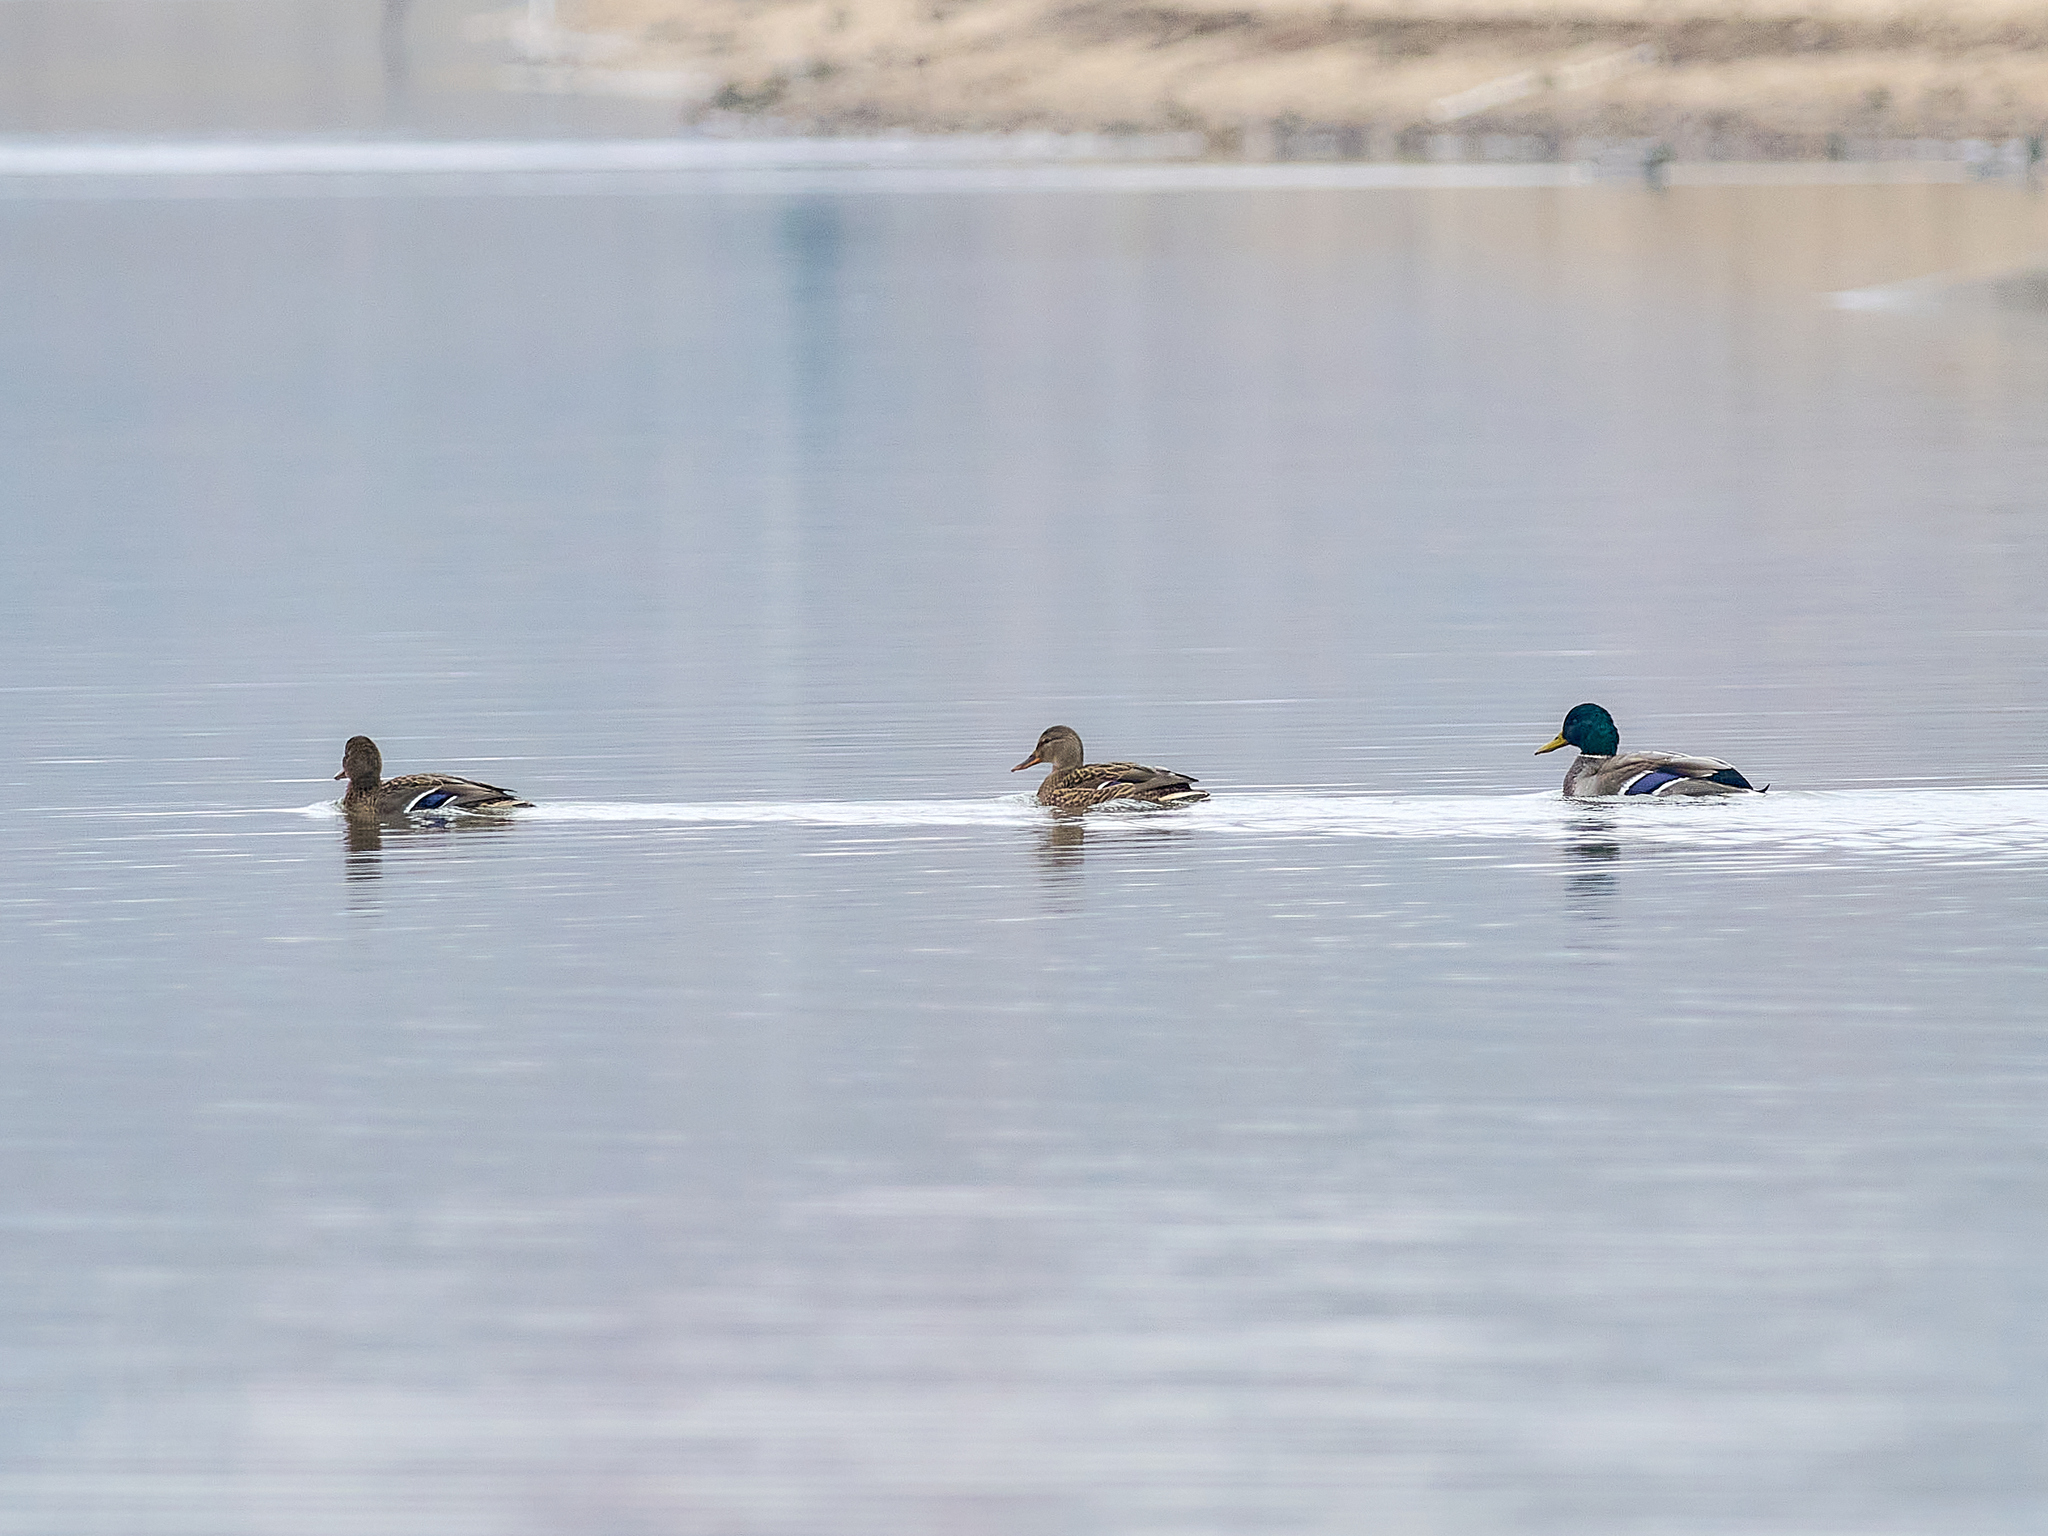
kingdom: Animalia
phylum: Chordata
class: Aves
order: Anseriformes
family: Anatidae
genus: Anas
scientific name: Anas platyrhynchos
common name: Mallard
